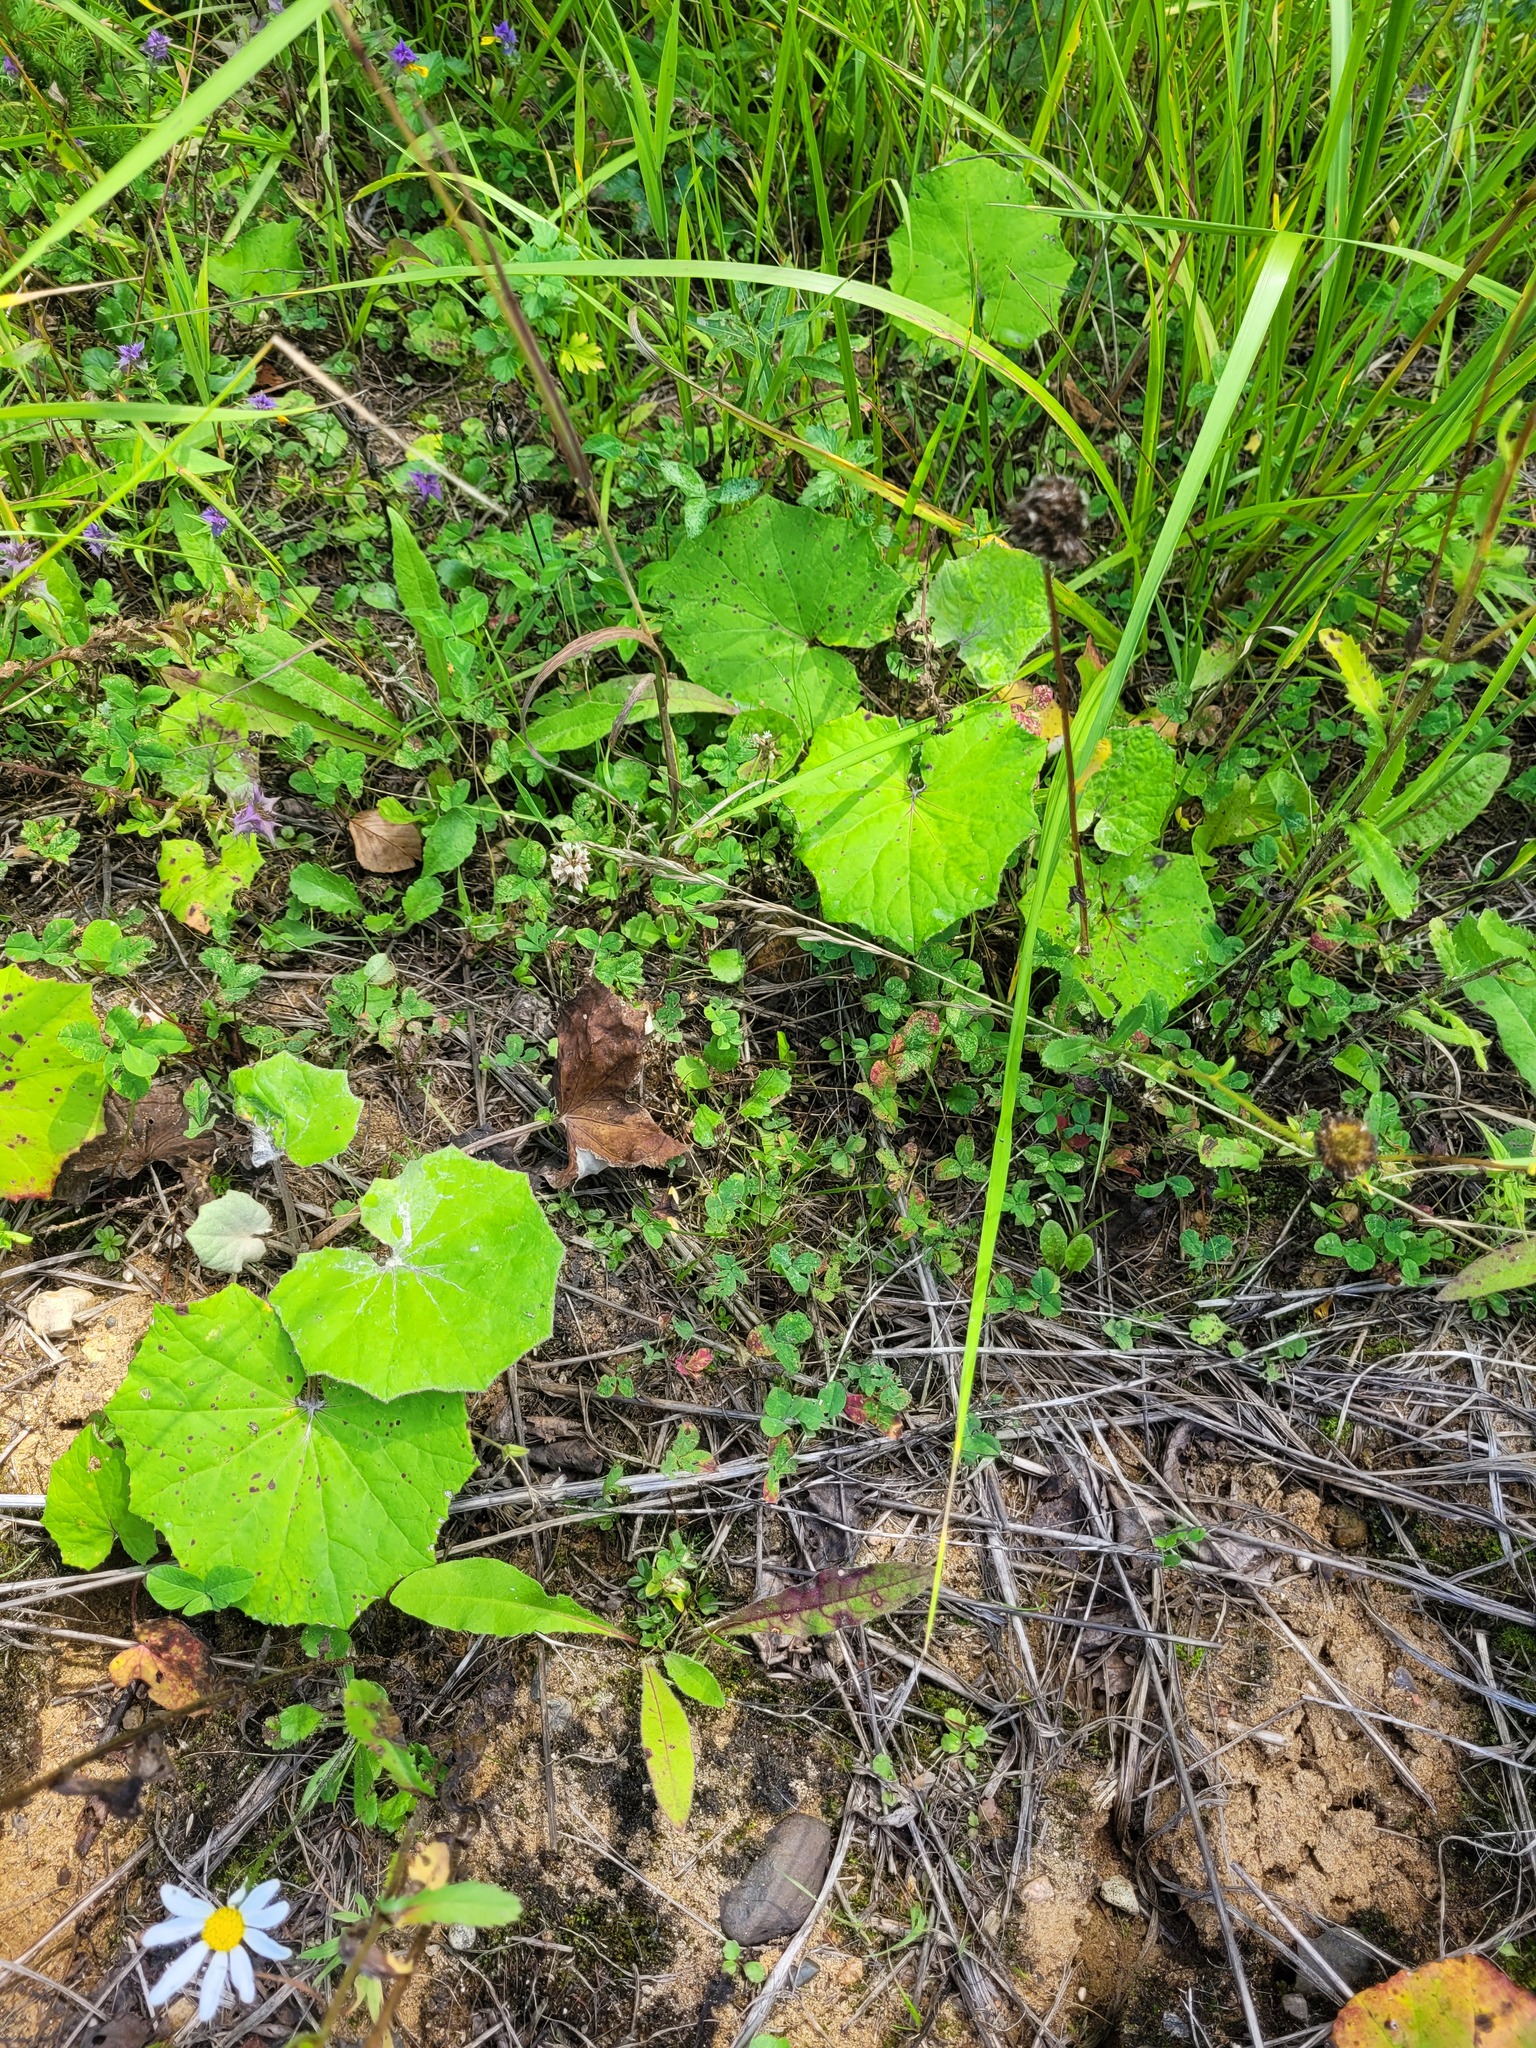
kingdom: Plantae
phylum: Tracheophyta
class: Magnoliopsida
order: Fabales
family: Fabaceae
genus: Trifolium
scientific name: Trifolium repens
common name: White clover
